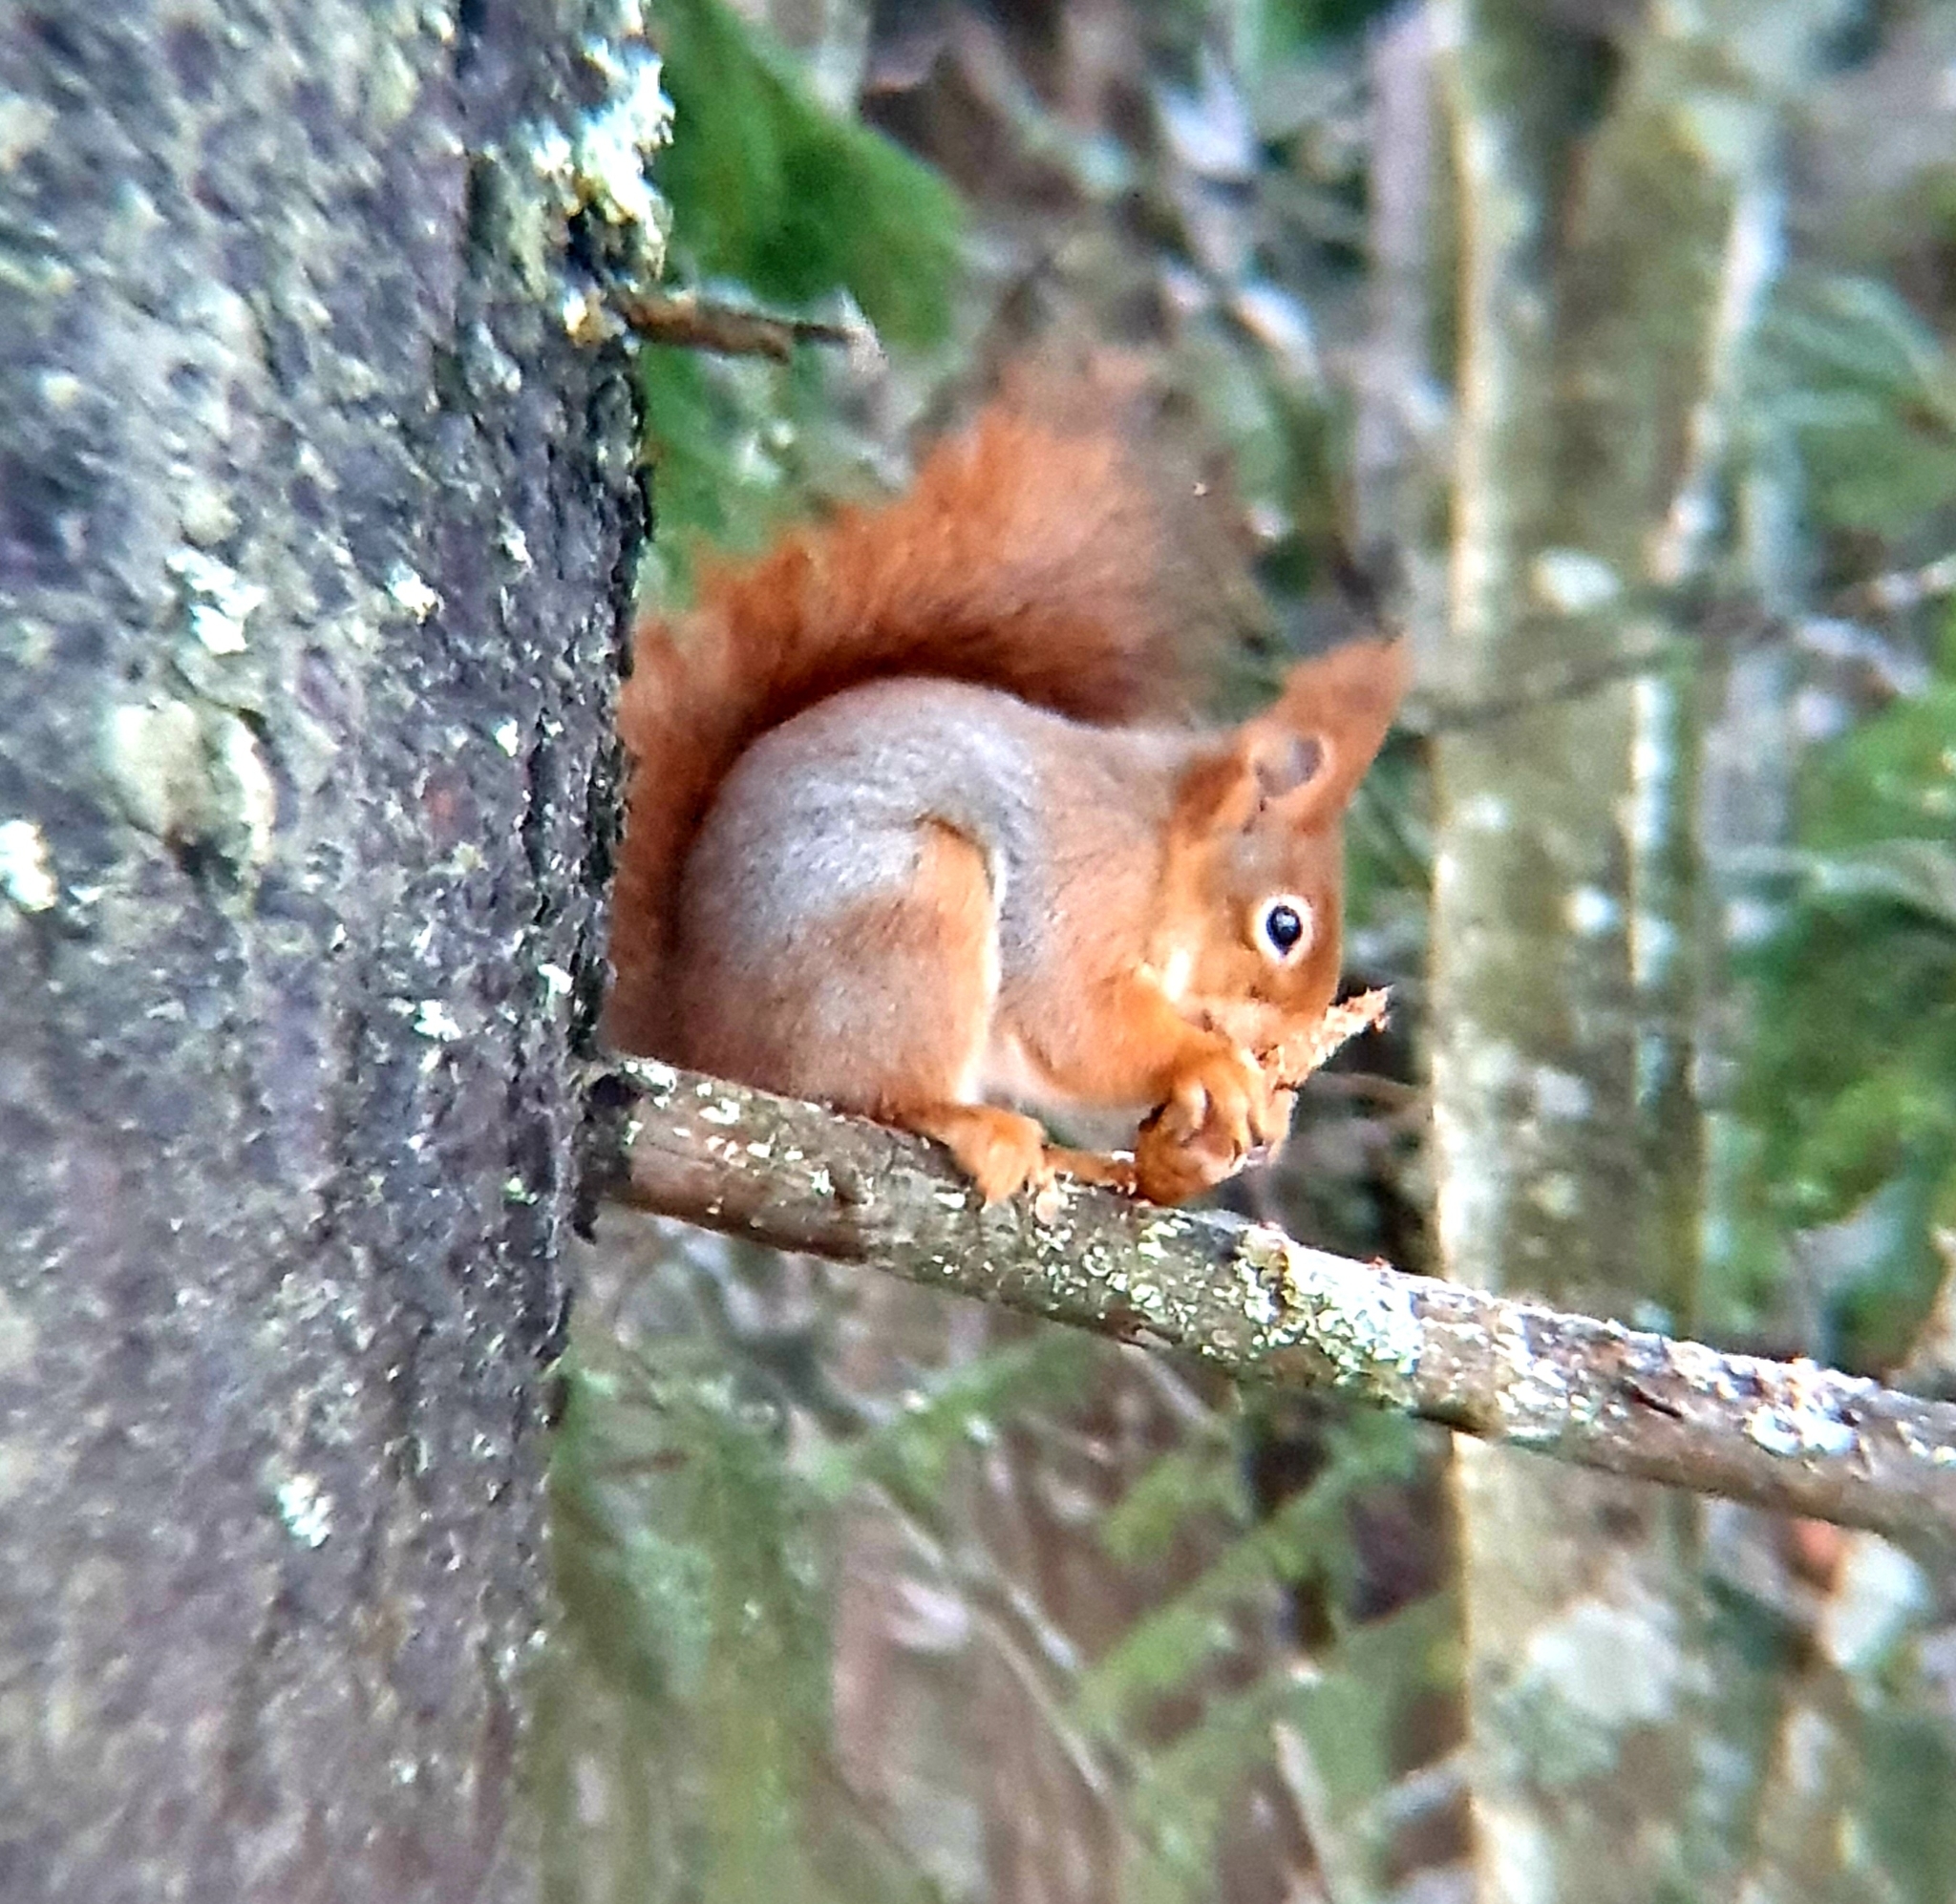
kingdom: Animalia
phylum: Chordata
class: Mammalia
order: Rodentia
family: Sciuridae
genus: Sciurus
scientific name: Sciurus vulgaris
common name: Eurasian red squirrel
